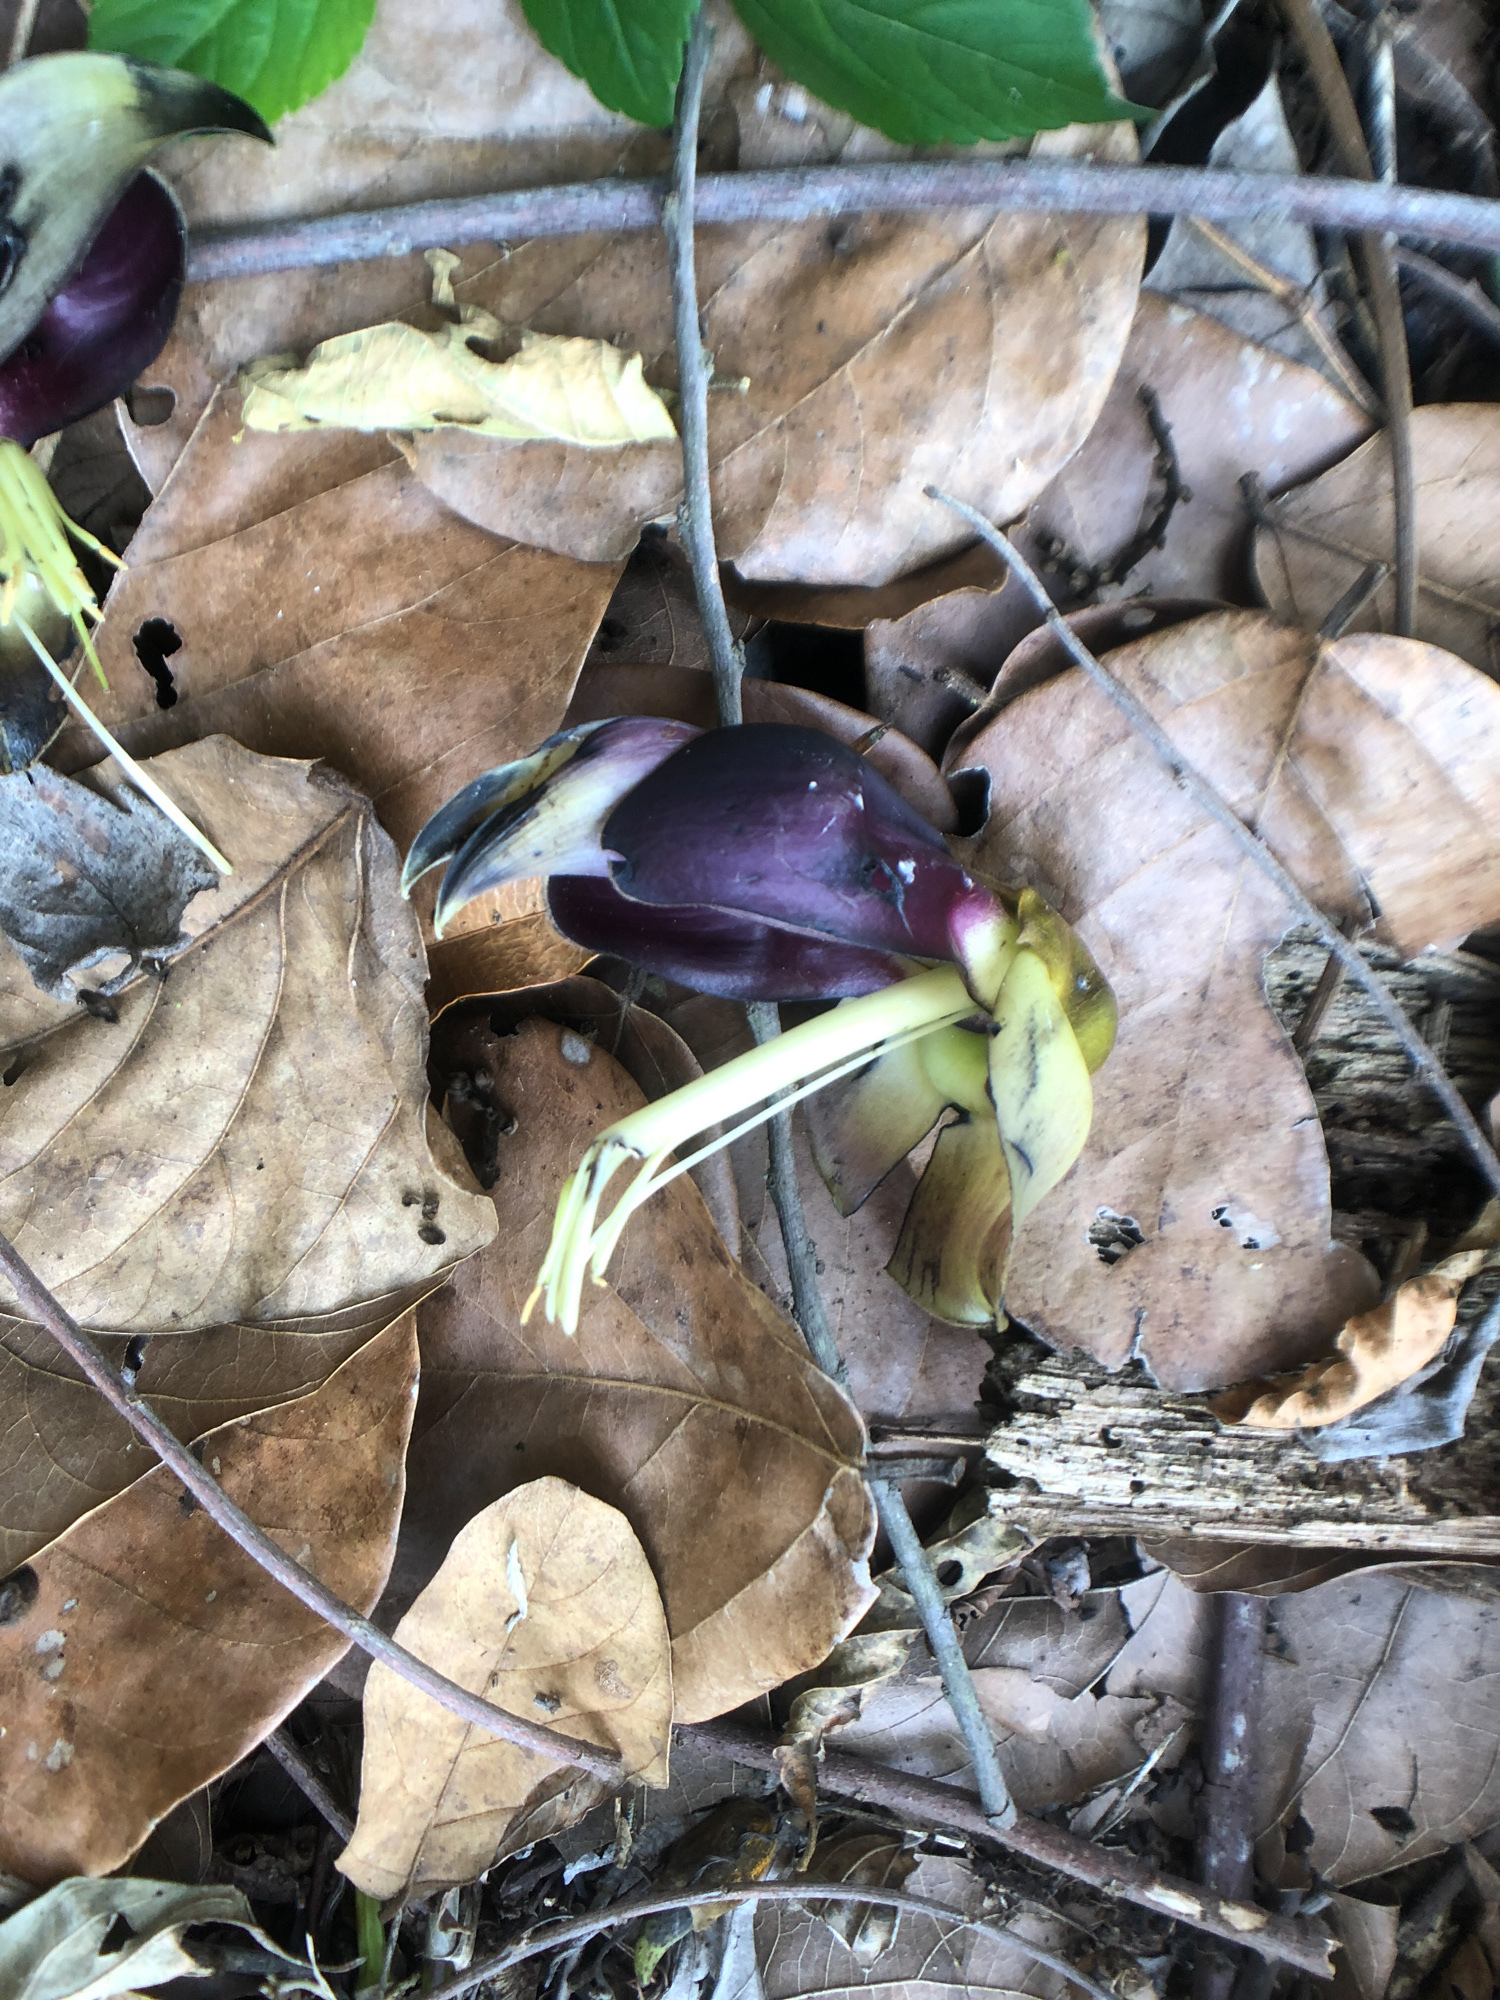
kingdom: Plantae
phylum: Tracheophyta
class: Magnoliopsida
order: Fabales
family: Fabaceae
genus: Mucuna
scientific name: Mucuna macrocarpa
